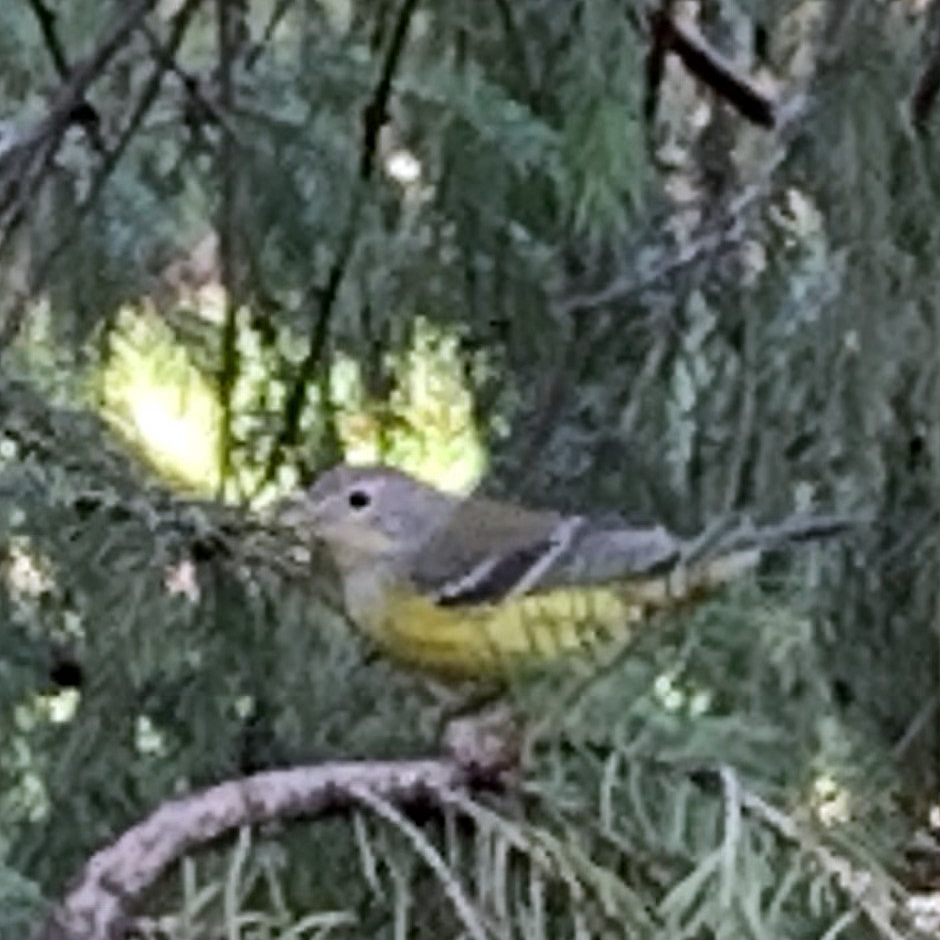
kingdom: Animalia
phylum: Chordata
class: Aves
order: Passeriformes
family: Parulidae
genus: Setophaga
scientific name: Setophaga magnolia
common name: Magnolia warbler
